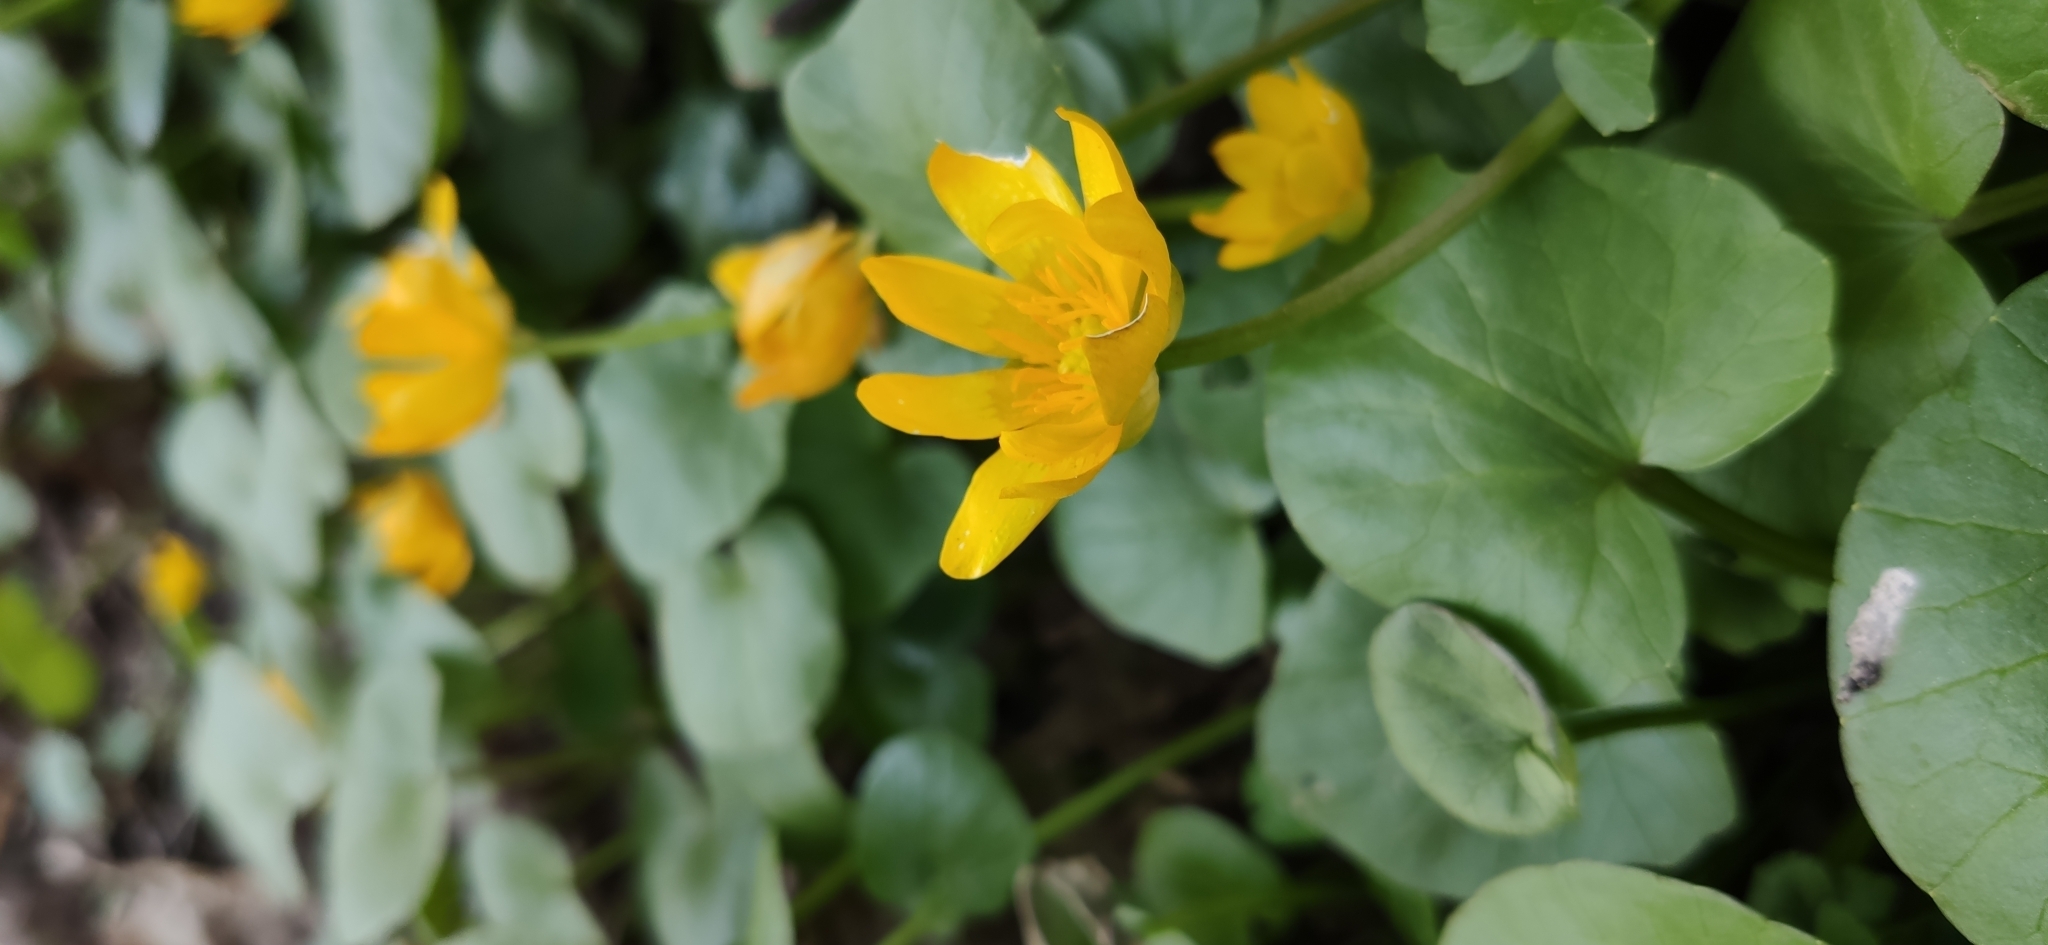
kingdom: Plantae
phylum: Tracheophyta
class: Magnoliopsida
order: Ranunculales
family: Ranunculaceae
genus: Ficaria
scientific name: Ficaria verna
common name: Lesser celandine
